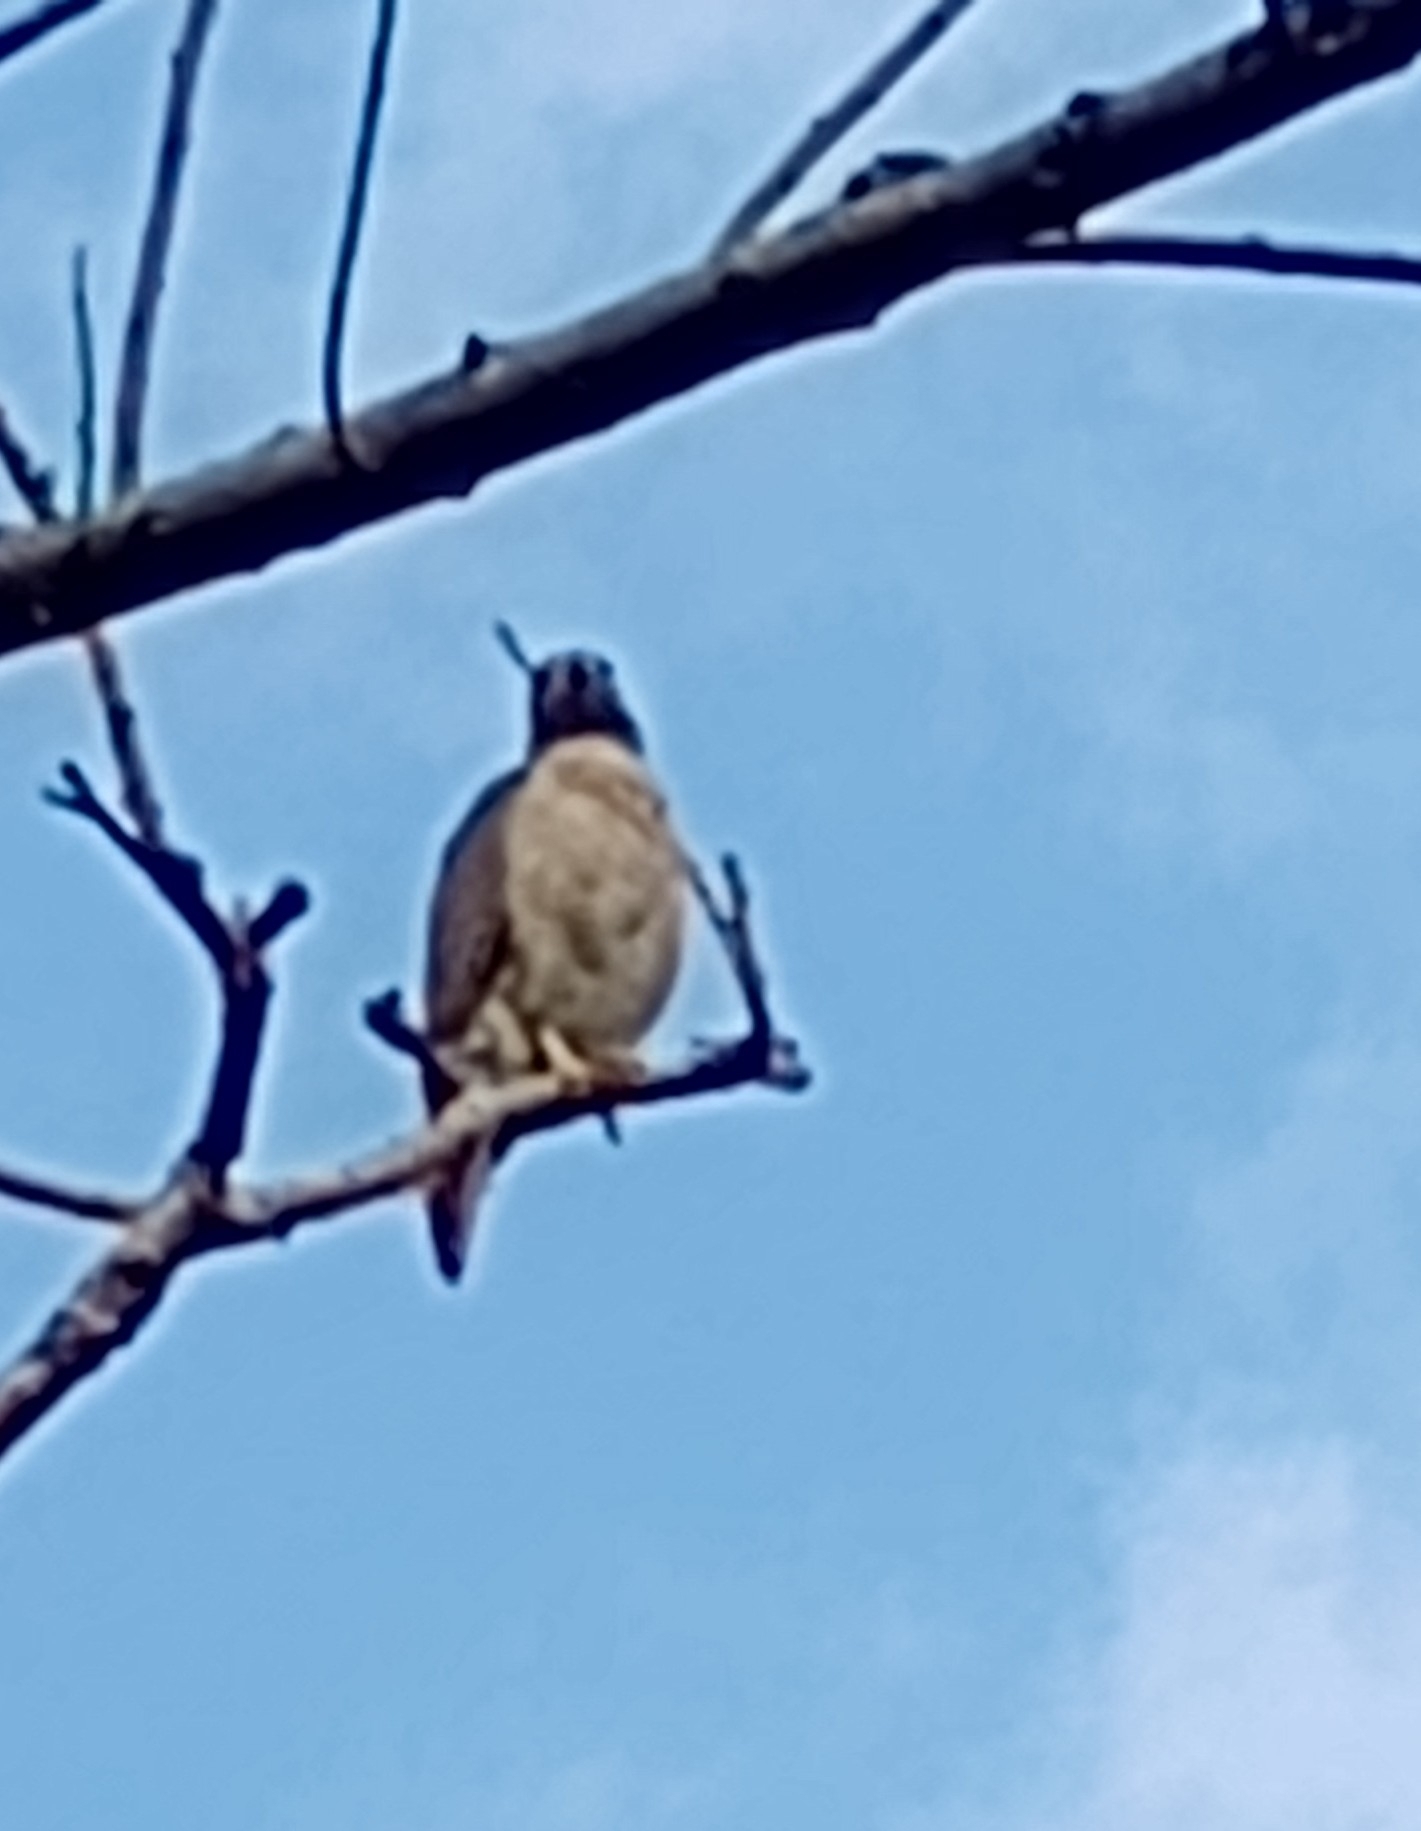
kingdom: Animalia
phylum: Chordata
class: Aves
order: Accipitriformes
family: Accipitridae
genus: Rupornis
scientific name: Rupornis magnirostris
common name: Roadside hawk
